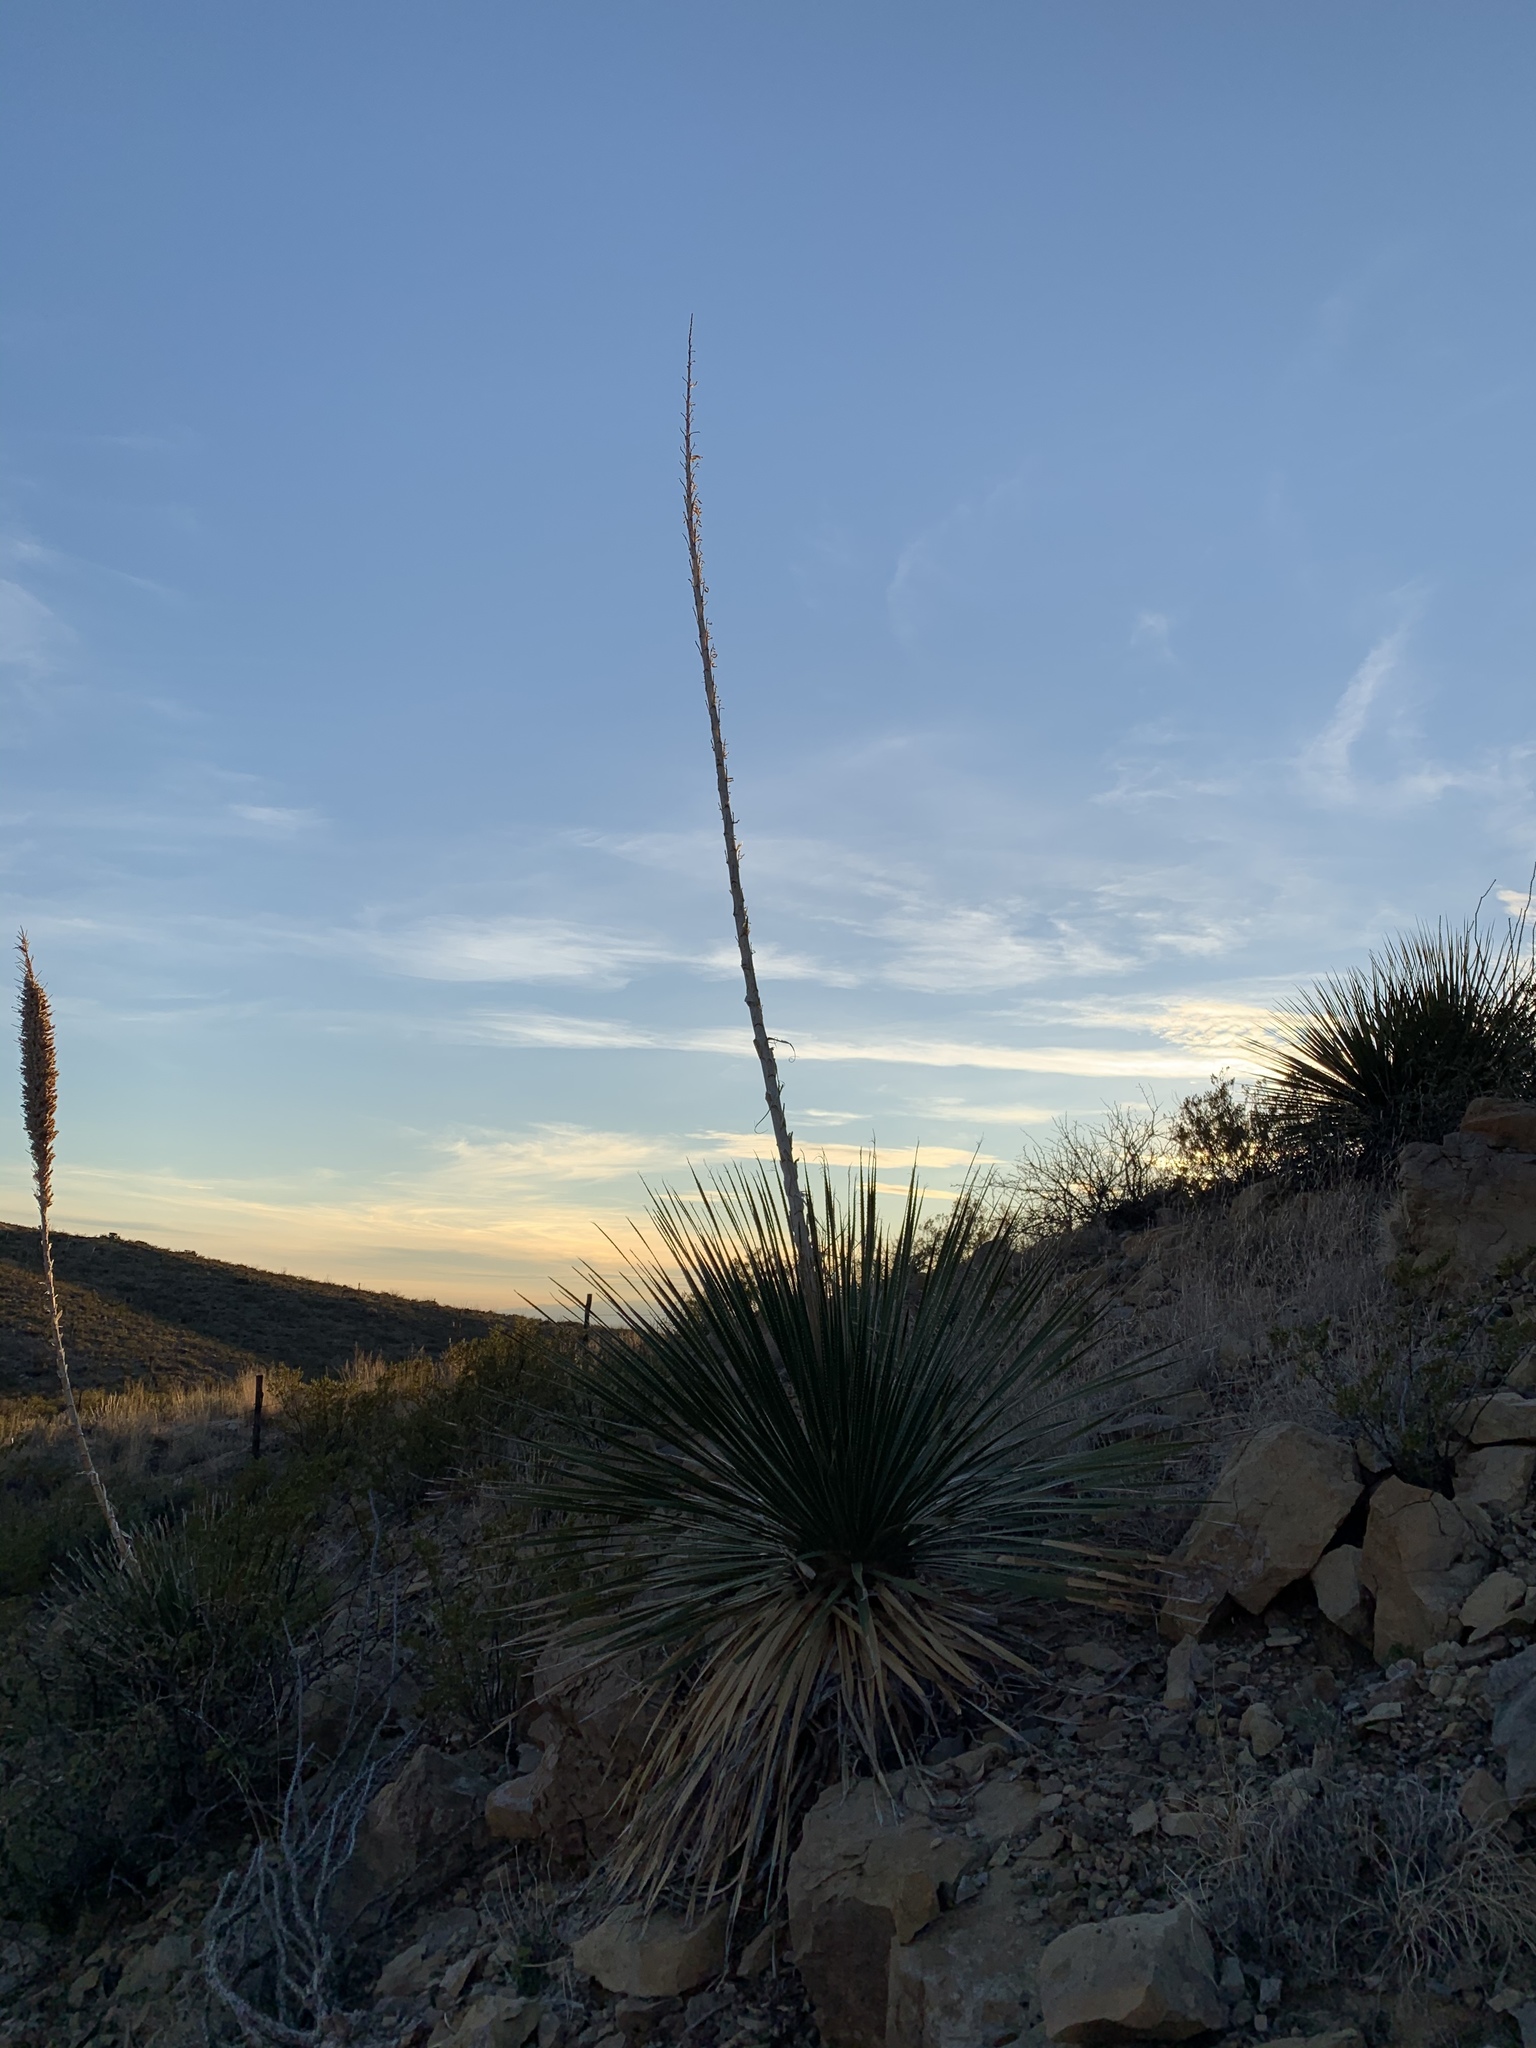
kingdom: Plantae
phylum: Tracheophyta
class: Liliopsida
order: Asparagales
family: Asparagaceae
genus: Dasylirion
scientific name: Dasylirion wheeleri
